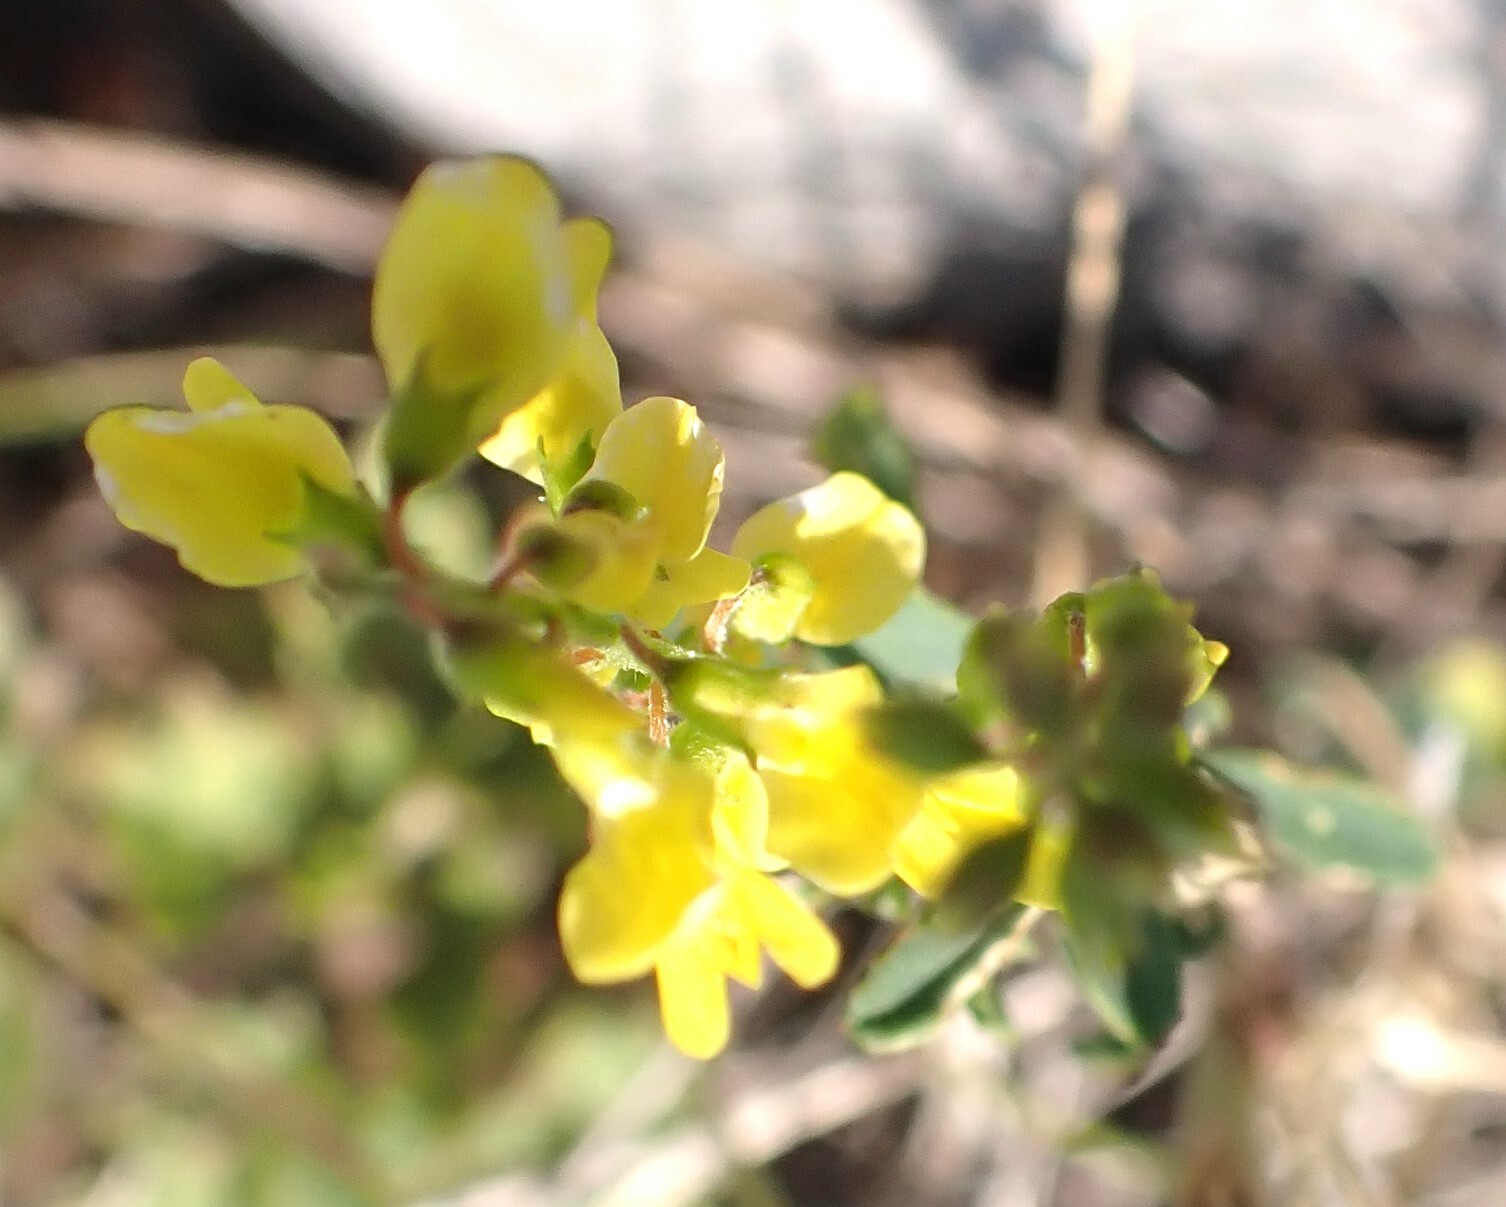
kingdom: Plantae
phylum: Tracheophyta
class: Magnoliopsida
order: Fabales
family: Fabaceae
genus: Melilotus
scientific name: Melilotus officinalis
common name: Sweetclover
